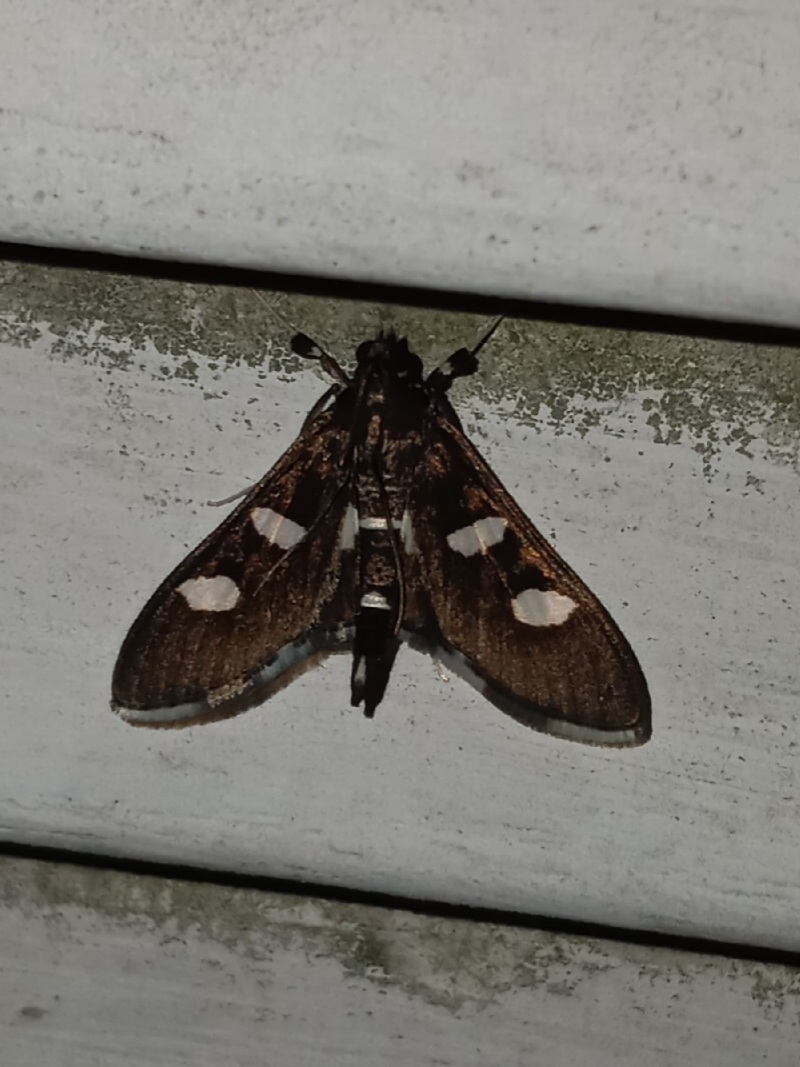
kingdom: Animalia
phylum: Arthropoda
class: Insecta
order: Lepidoptera
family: Crambidae
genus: Desmia
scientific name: Desmia
